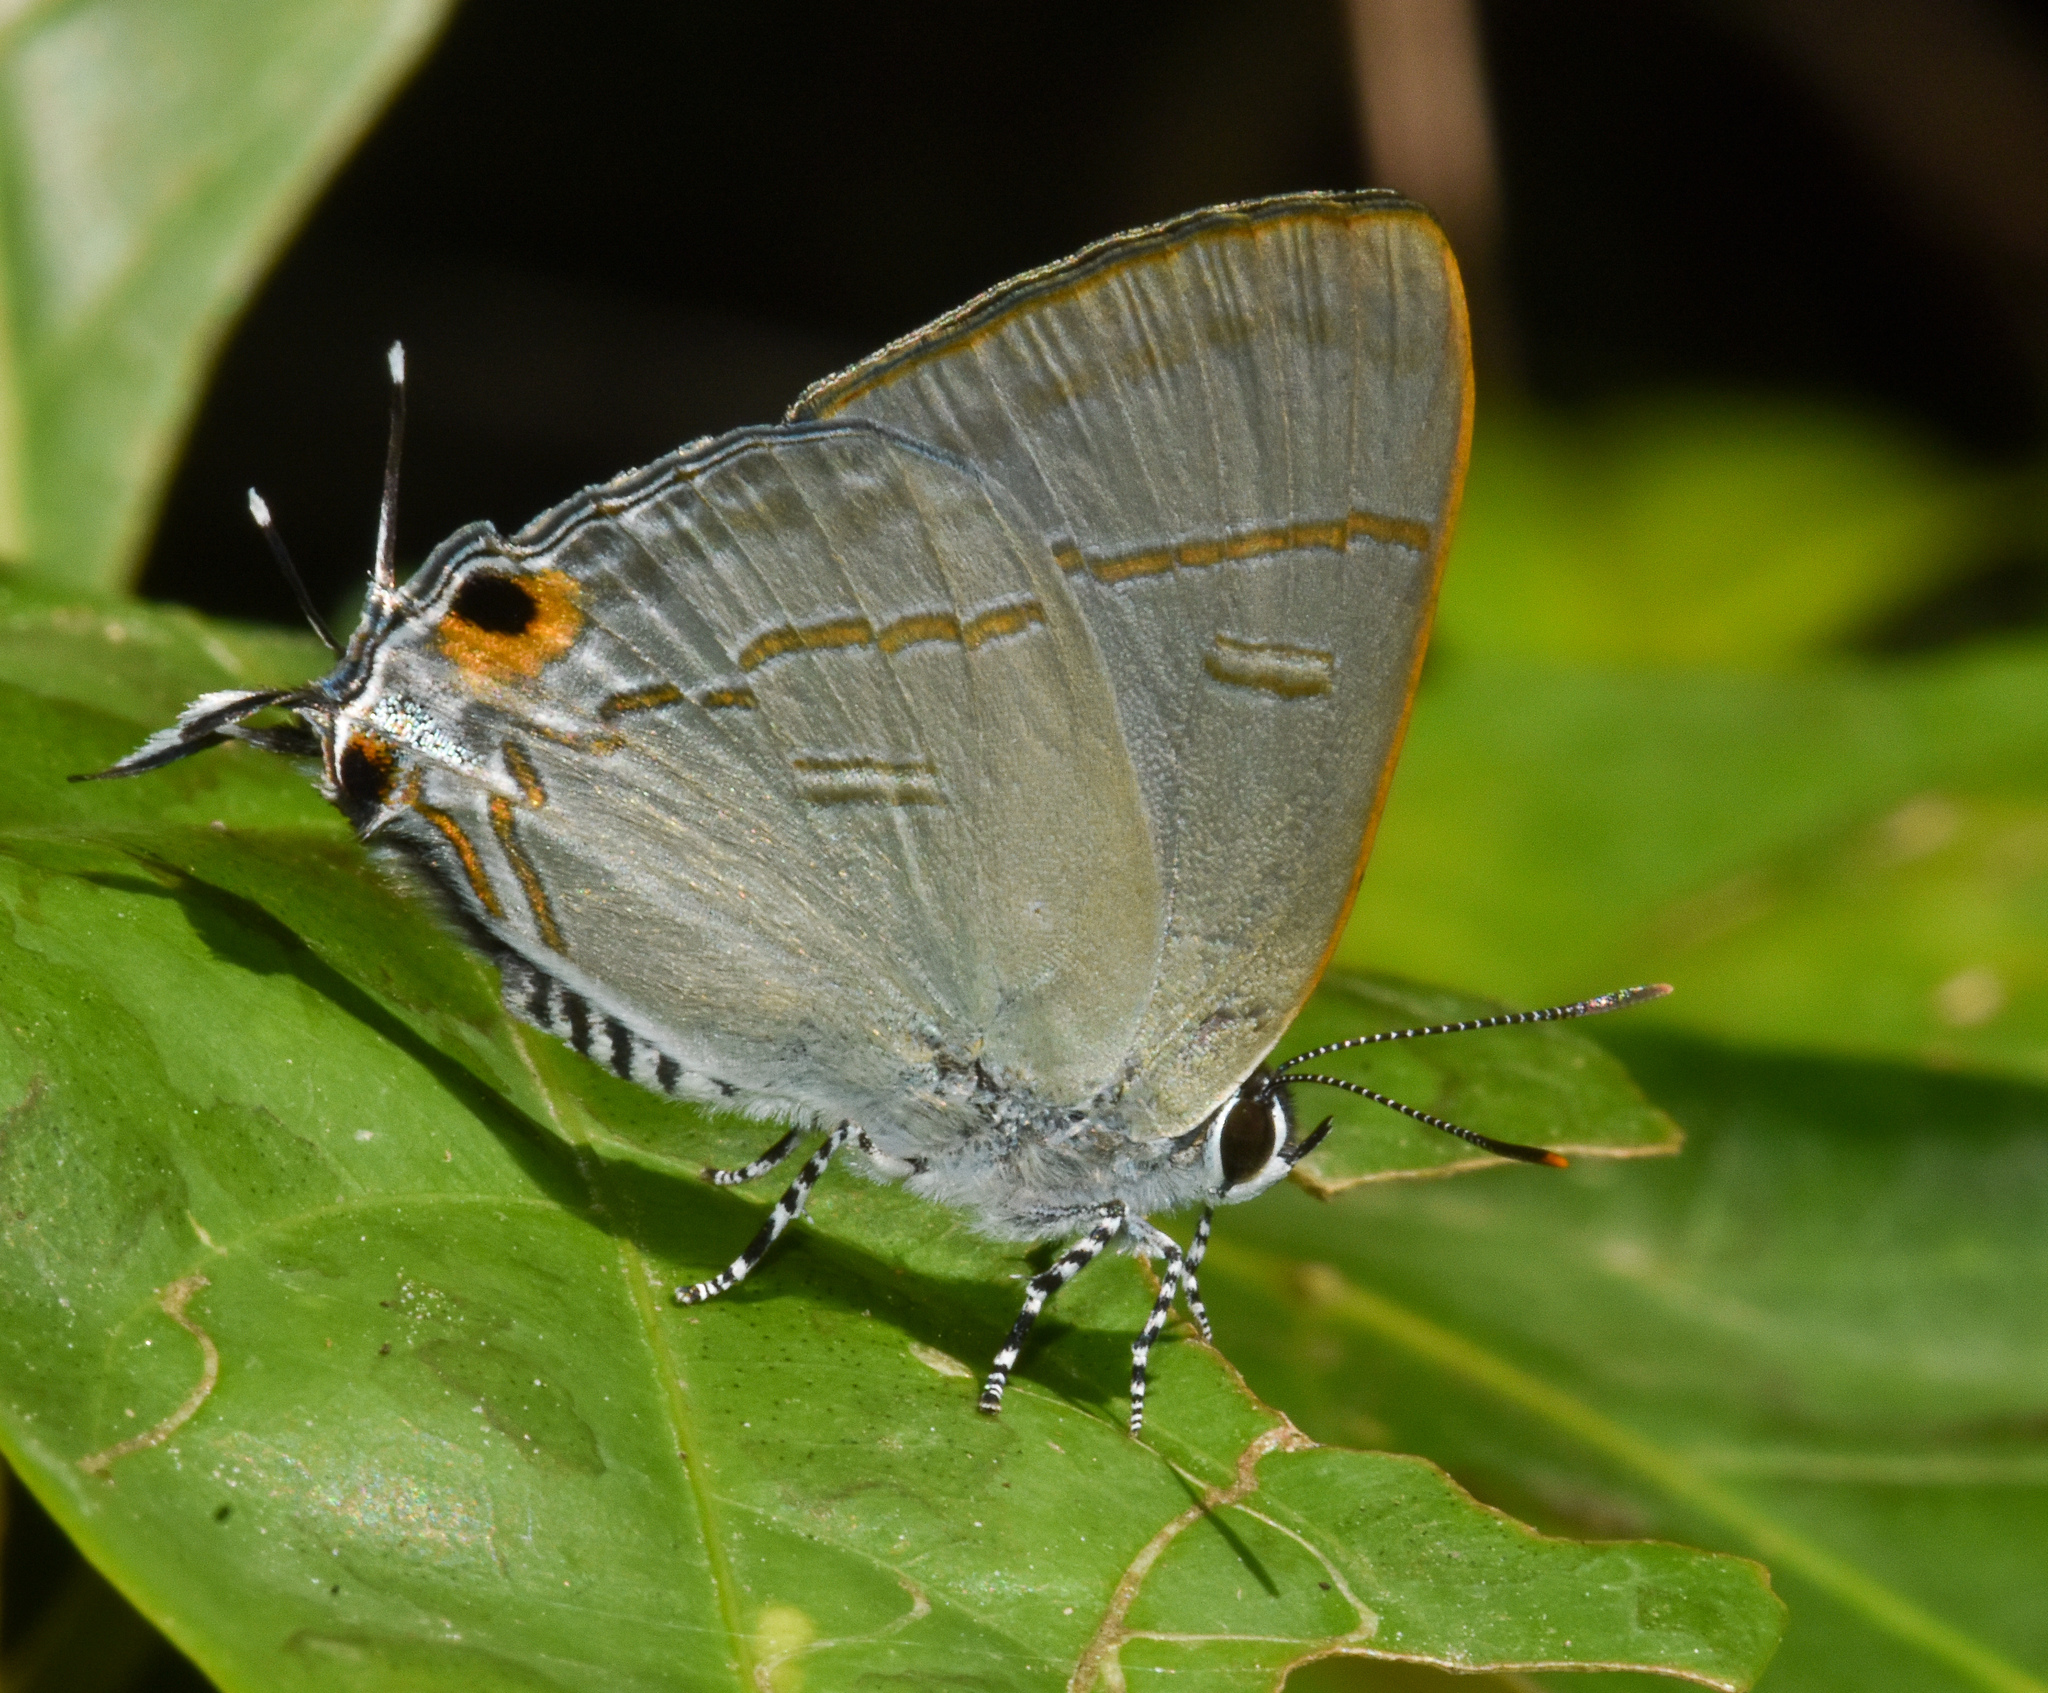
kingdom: Animalia
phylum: Arthropoda
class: Insecta
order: Lepidoptera
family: Lycaenidae
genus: Hypolycaena
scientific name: Hypolycaena erylus
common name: Common tit
